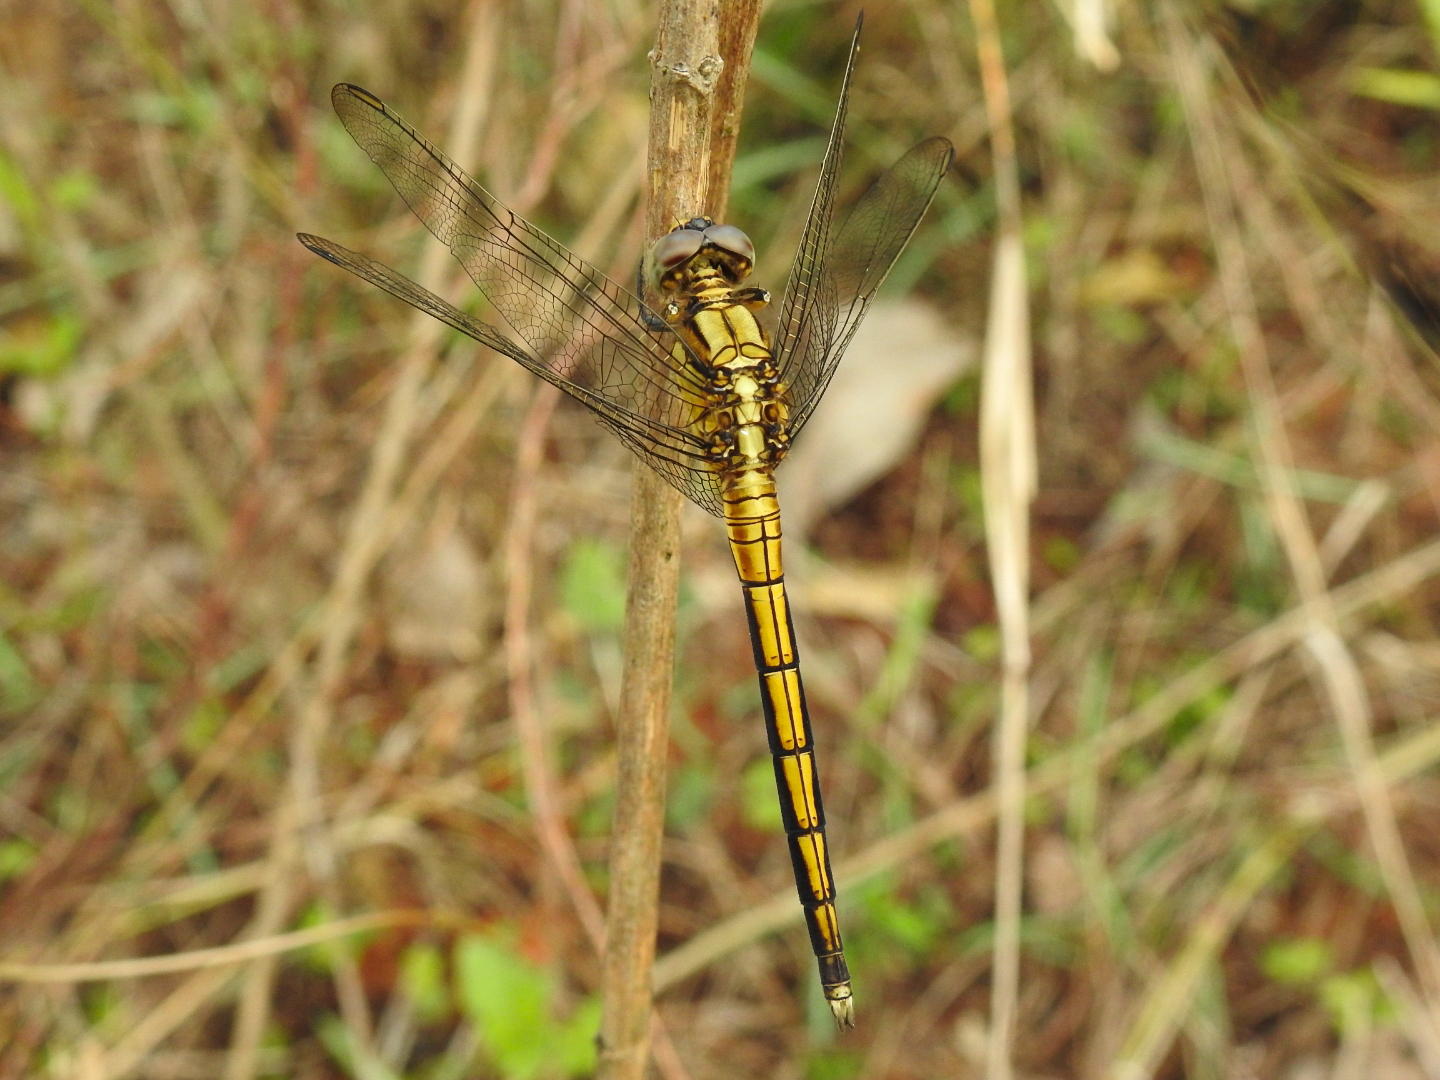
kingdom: Animalia
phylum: Arthropoda
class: Insecta
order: Odonata
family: Libellulidae
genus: Orthetrum
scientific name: Orthetrum luzonicum
